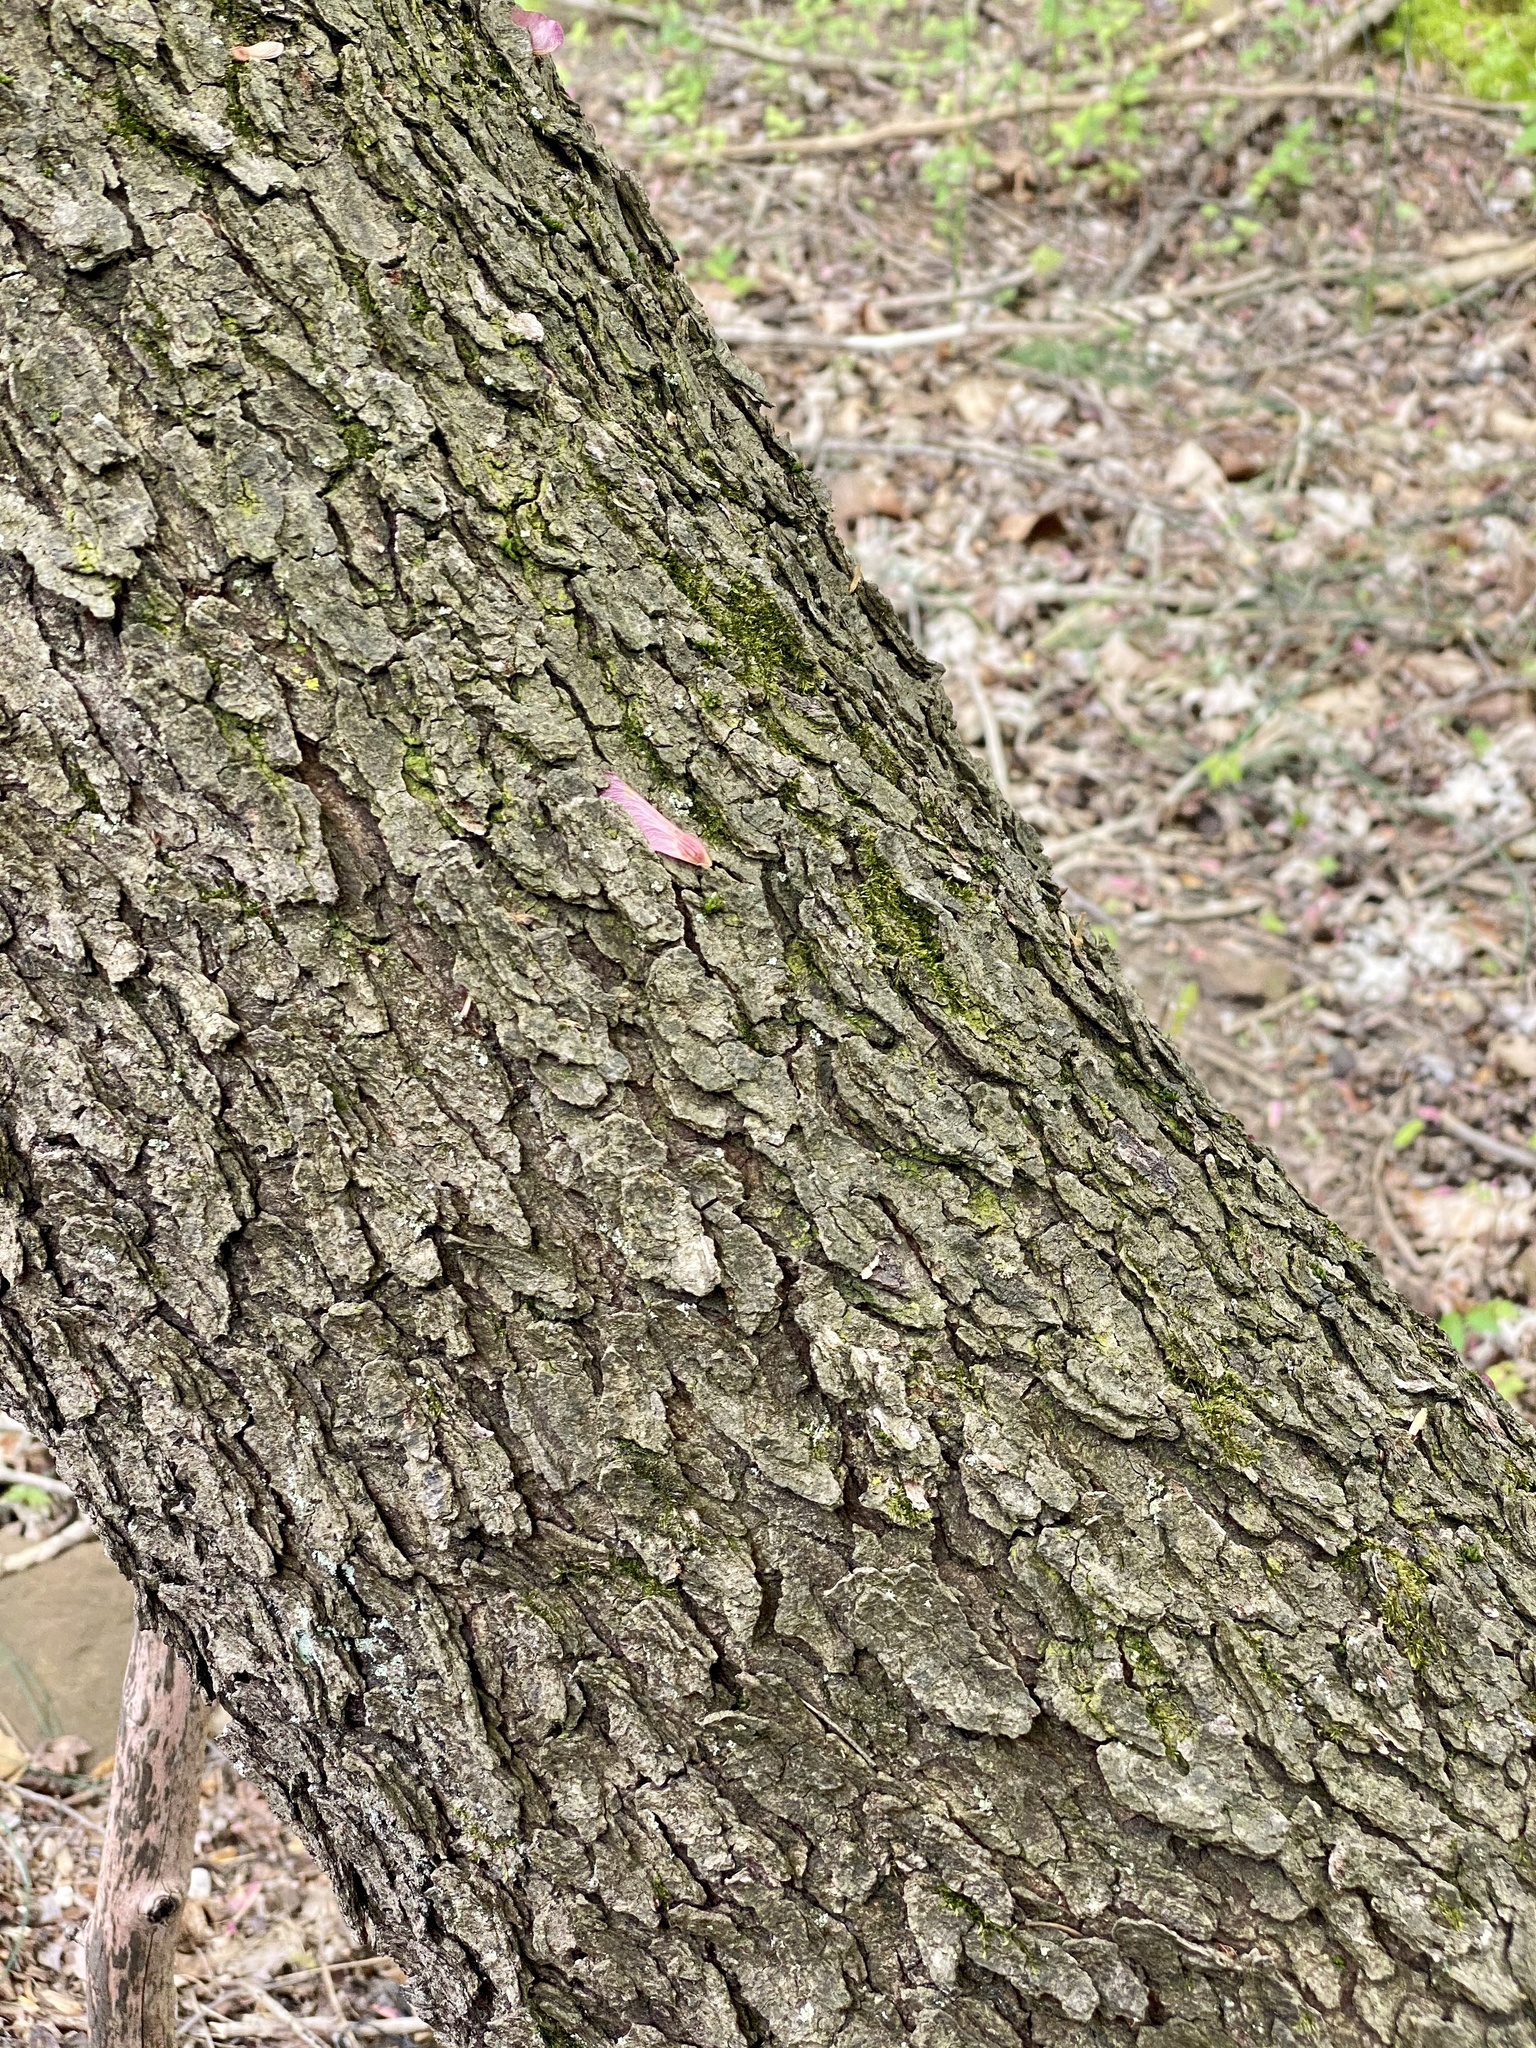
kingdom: Plantae
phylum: Tracheophyta
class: Magnoliopsida
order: Rosales
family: Rosaceae
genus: Prunus
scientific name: Prunus serotina
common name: Black cherry
